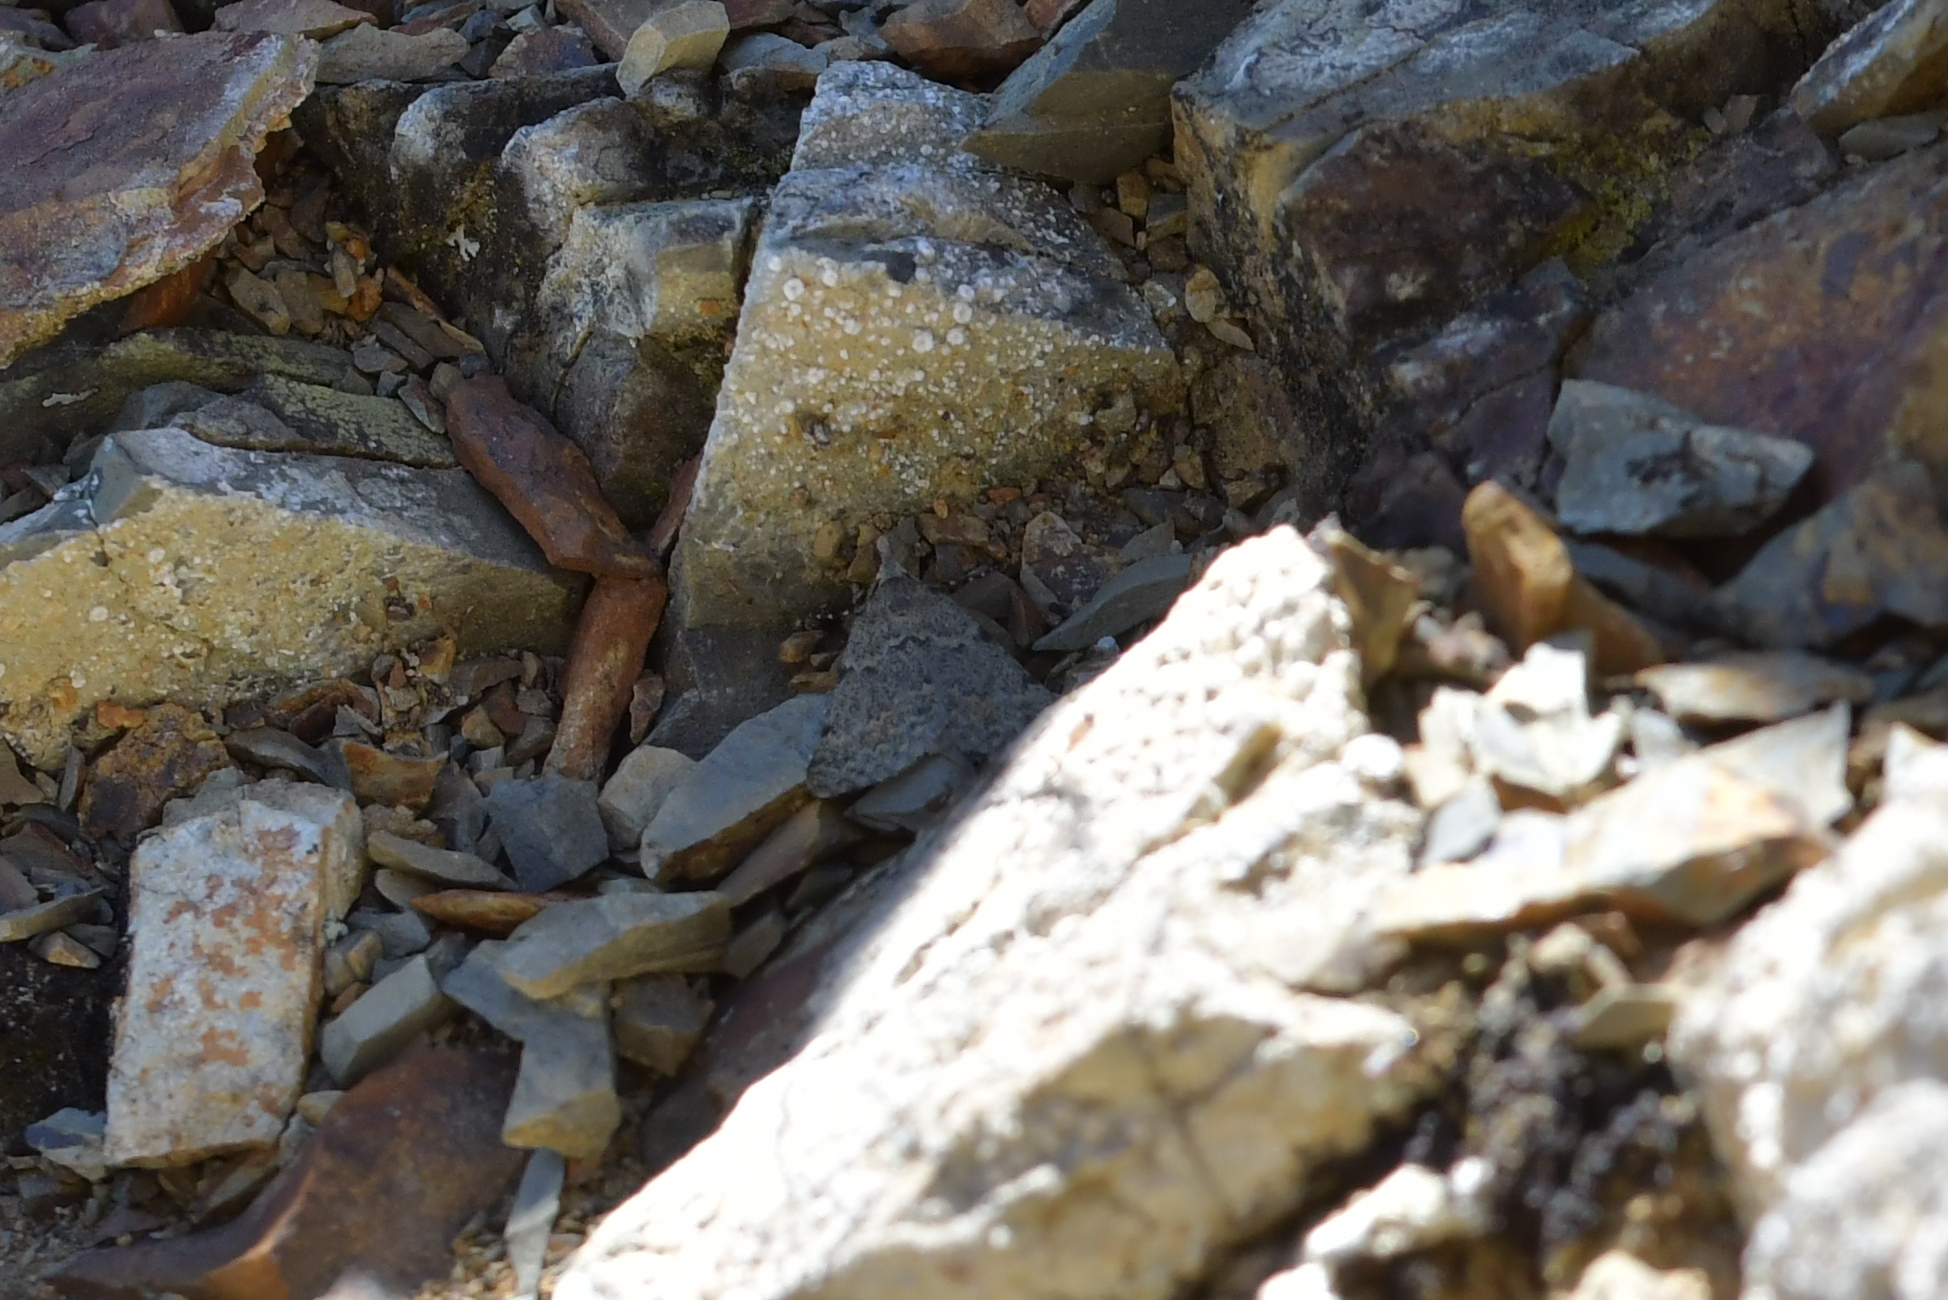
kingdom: Animalia
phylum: Arthropoda
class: Insecta
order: Lepidoptera
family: Geometridae
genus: Dichromodes
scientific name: Dichromodes sphaeriata
